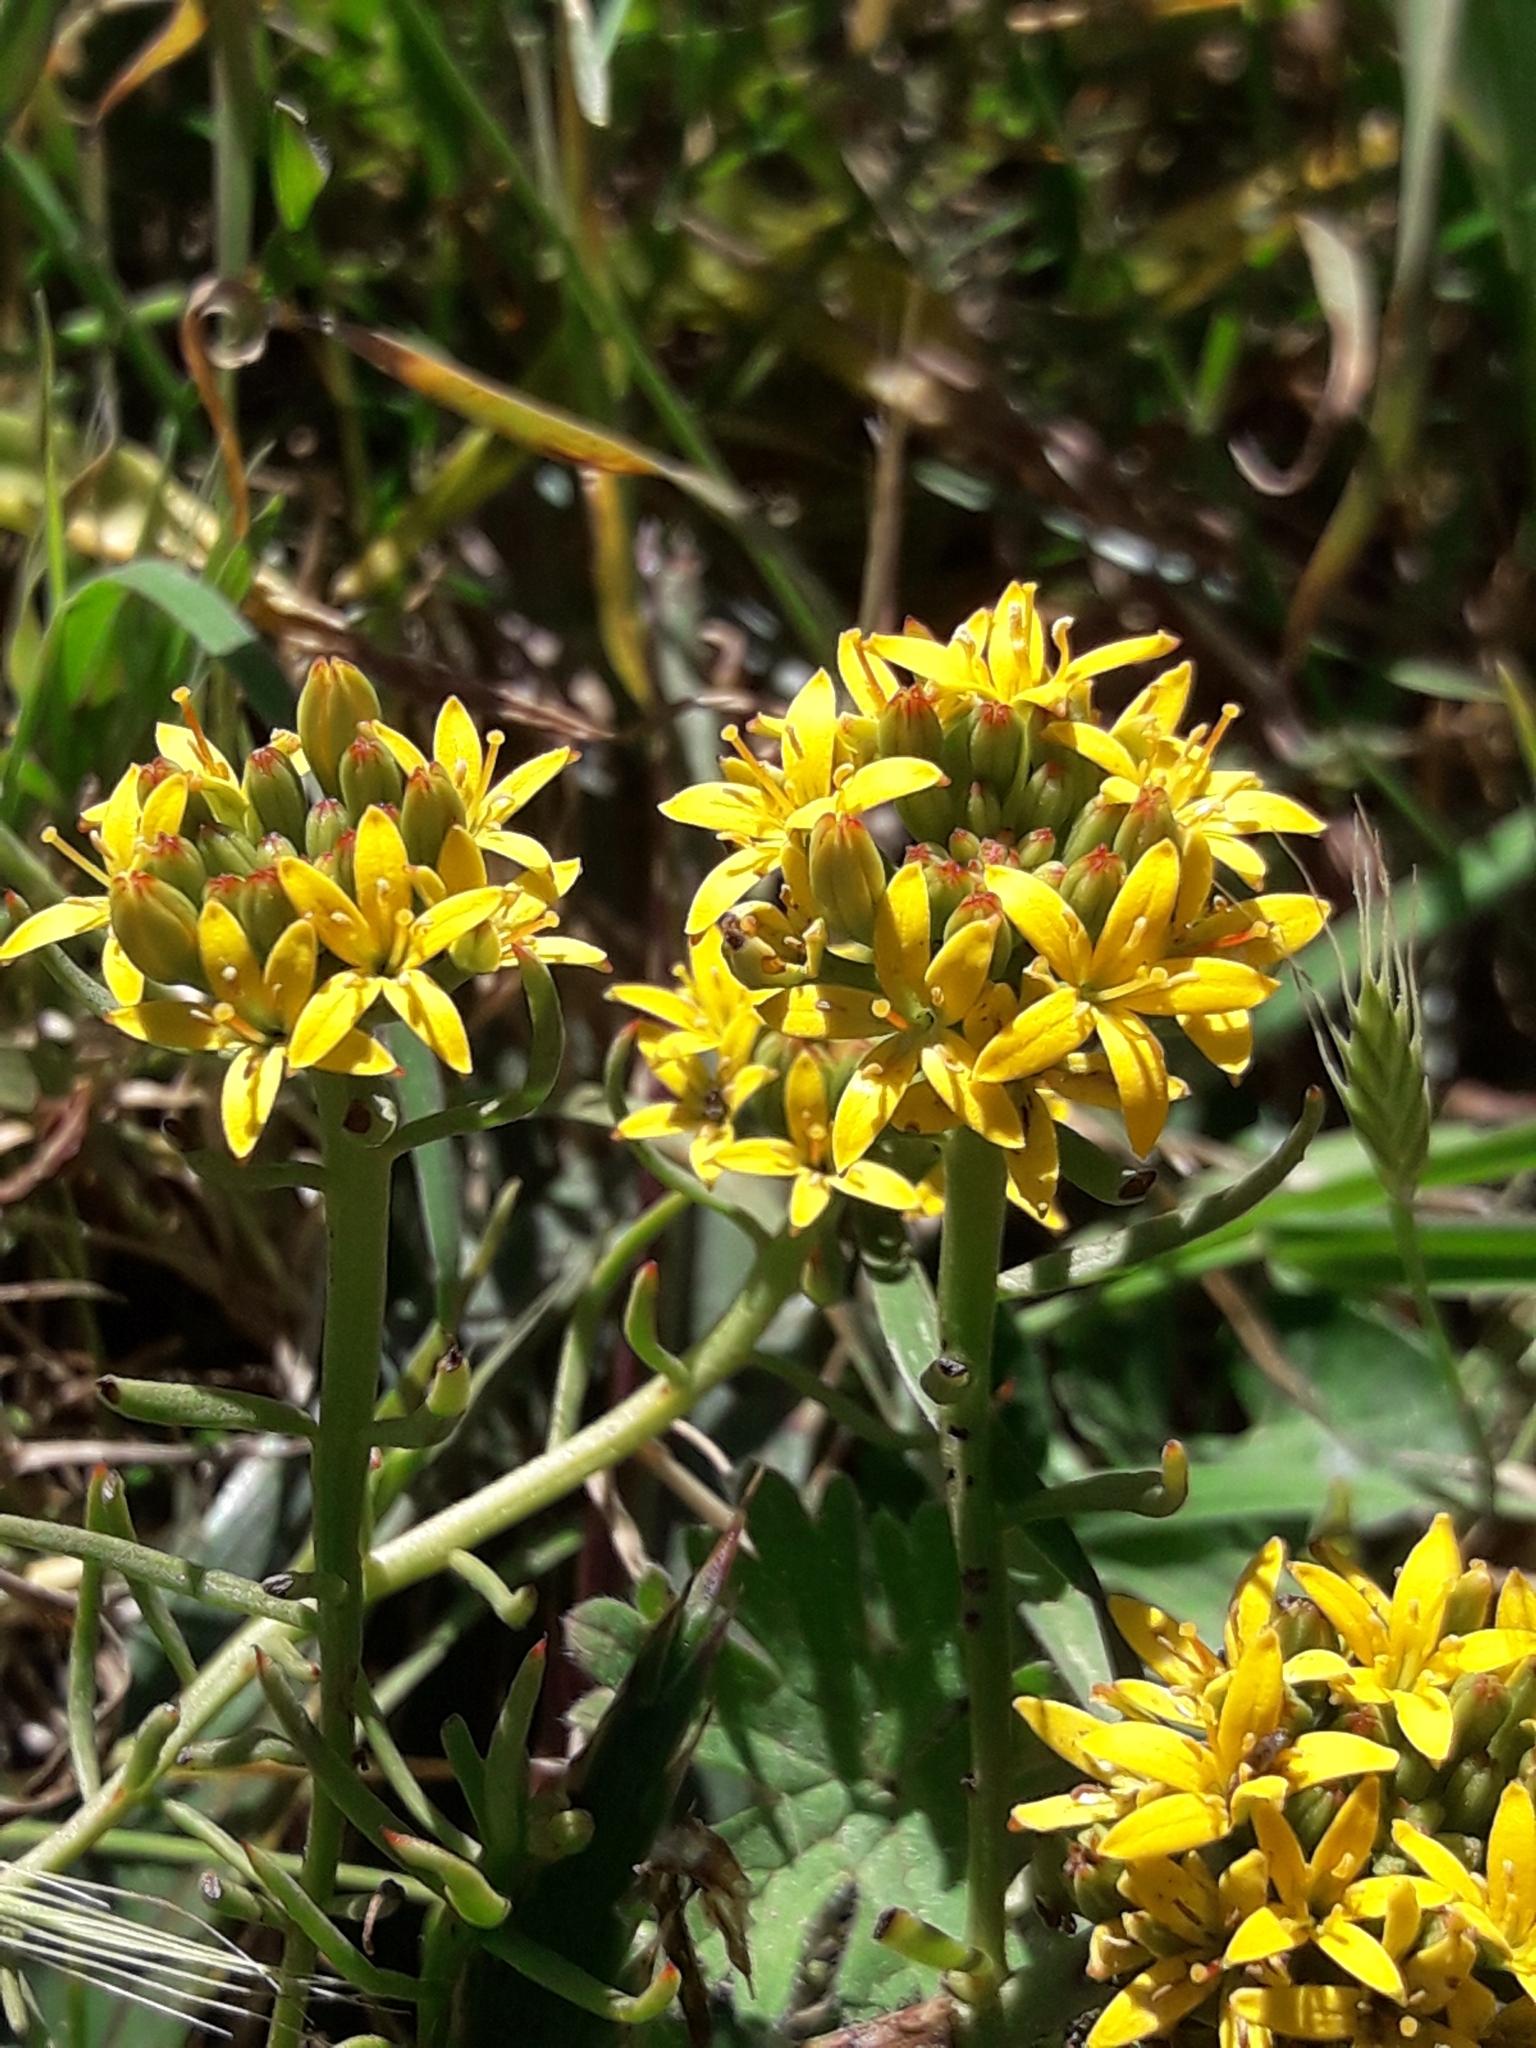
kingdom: Plantae
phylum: Tracheophyta
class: Magnoliopsida
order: Santalales
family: Schoepfiaceae
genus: Quinchamalium
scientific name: Quinchamalium chilense
